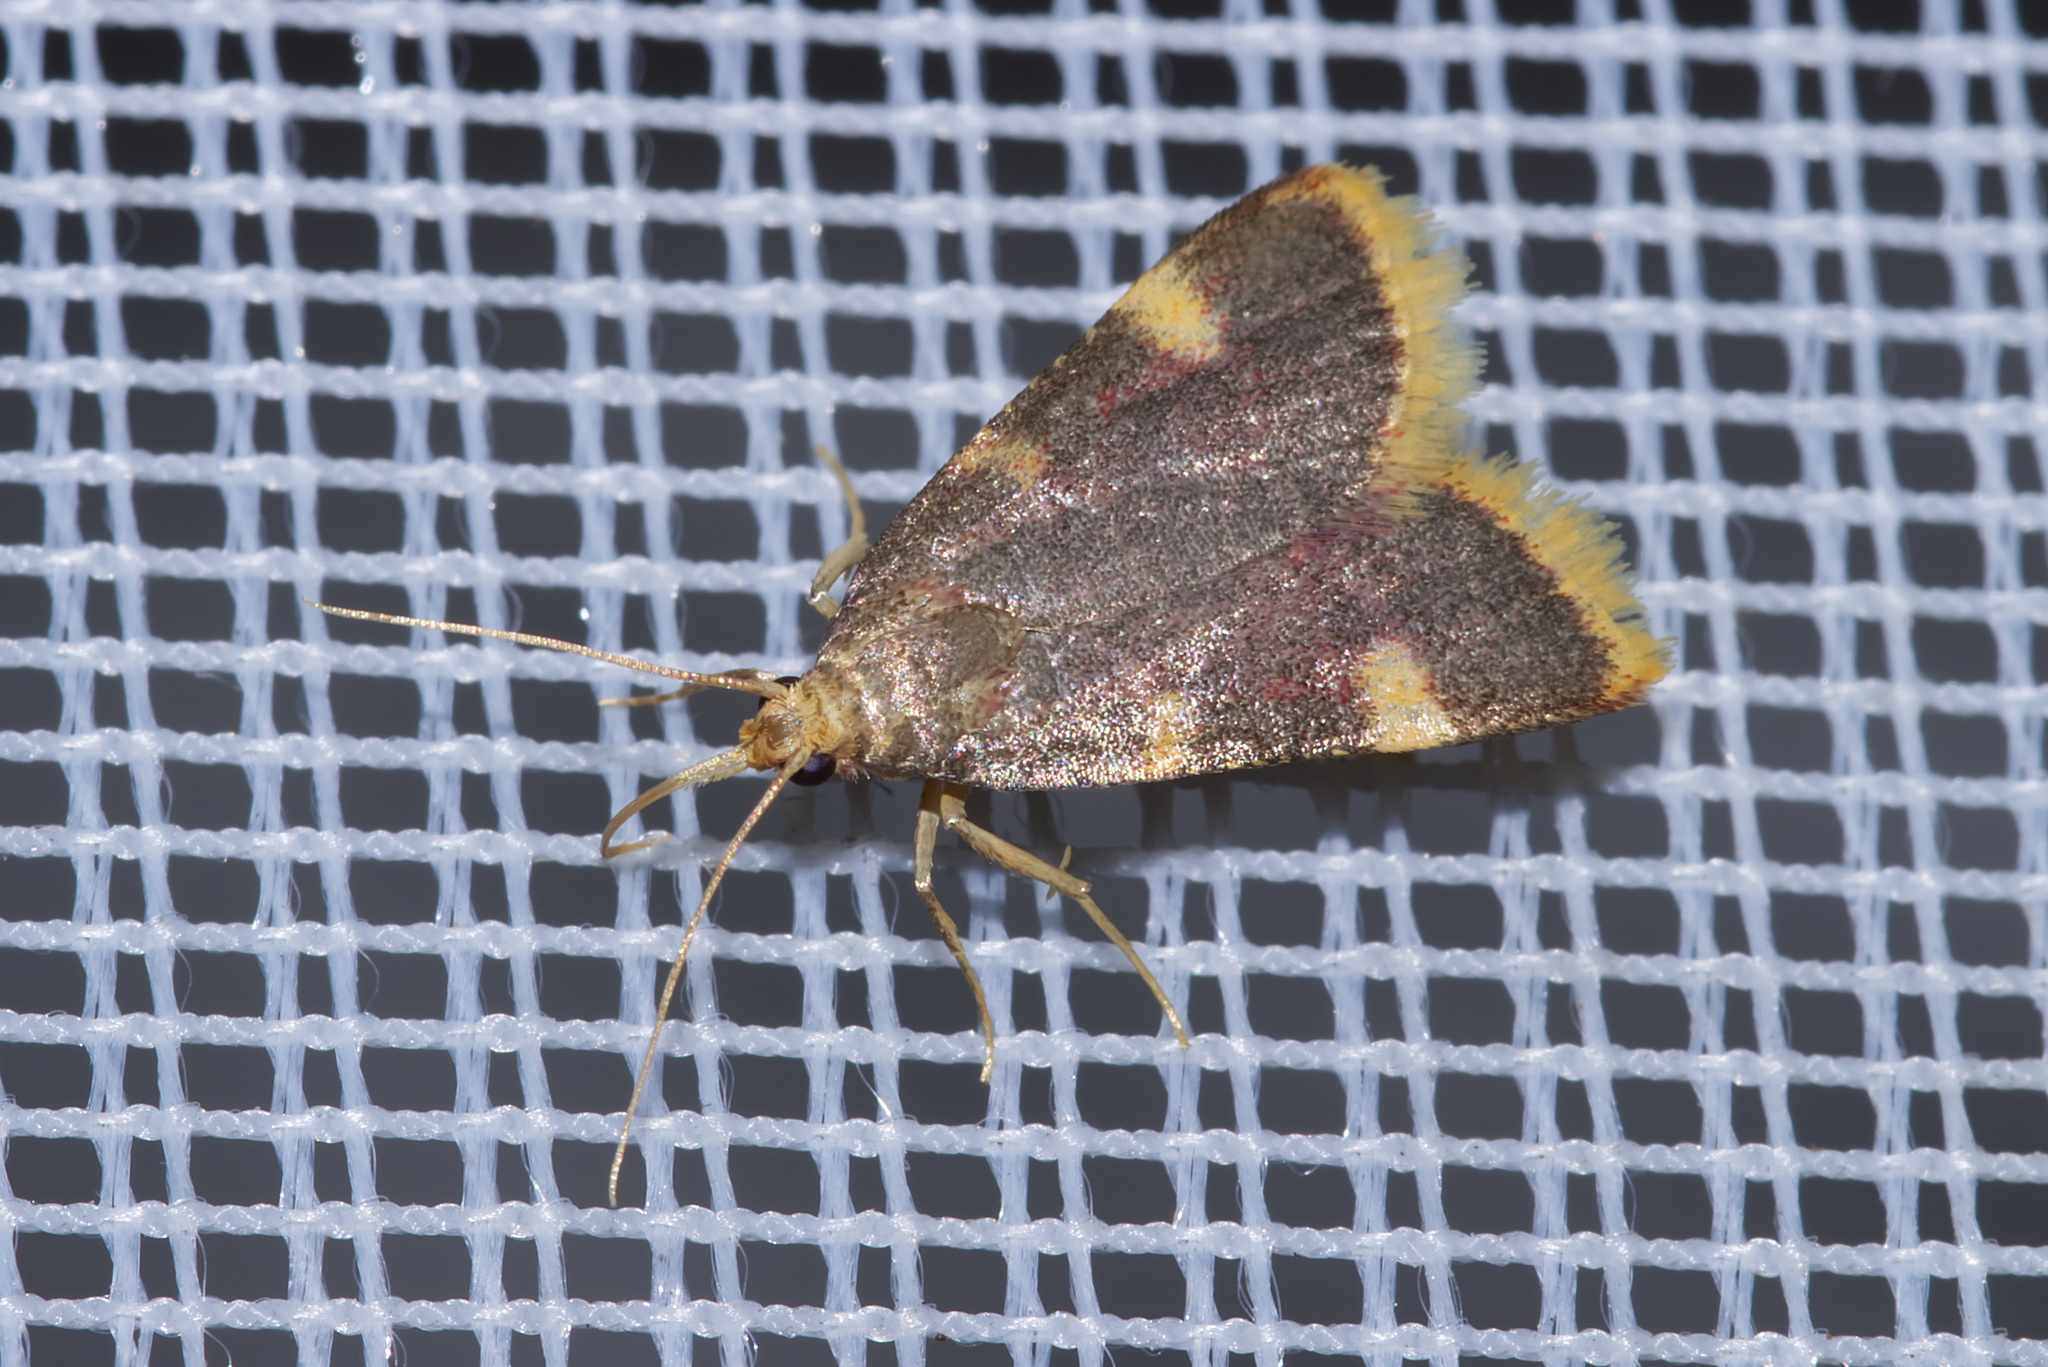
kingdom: Animalia
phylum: Arthropoda
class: Insecta
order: Lepidoptera
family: Pyralidae
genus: Hypsopygia
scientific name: Hypsopygia costalis
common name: Gold triangle
